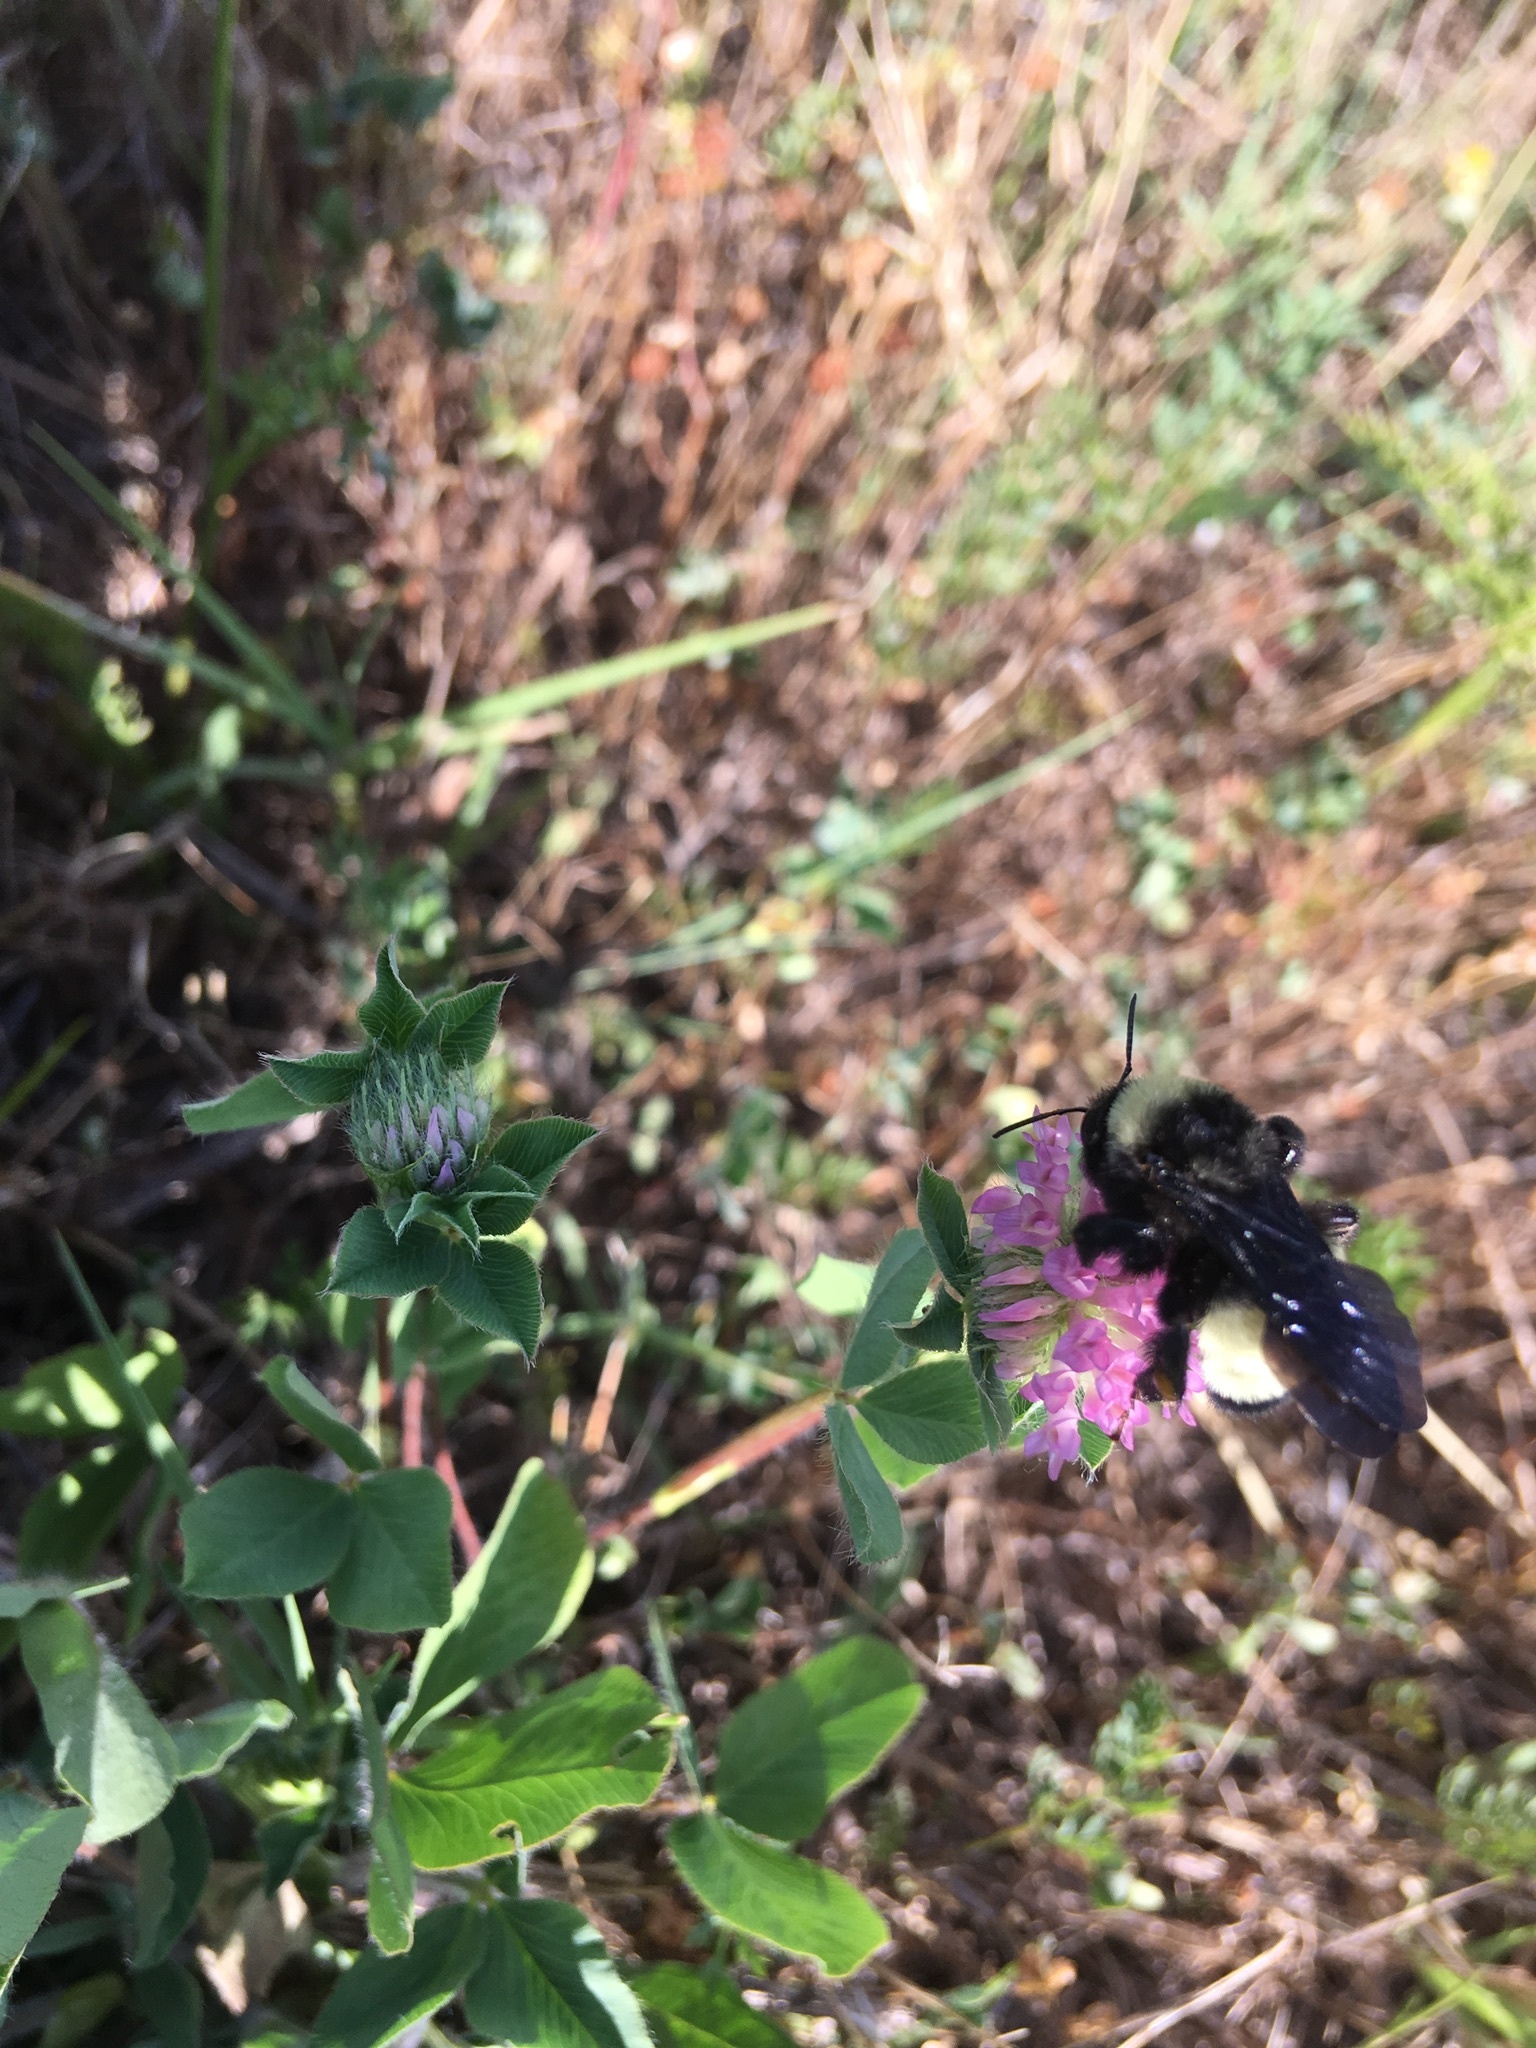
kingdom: Animalia
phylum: Arthropoda
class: Insecta
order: Hymenoptera
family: Apidae
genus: Bombus
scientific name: Bombus pensylvanicus
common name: Bumble bee
